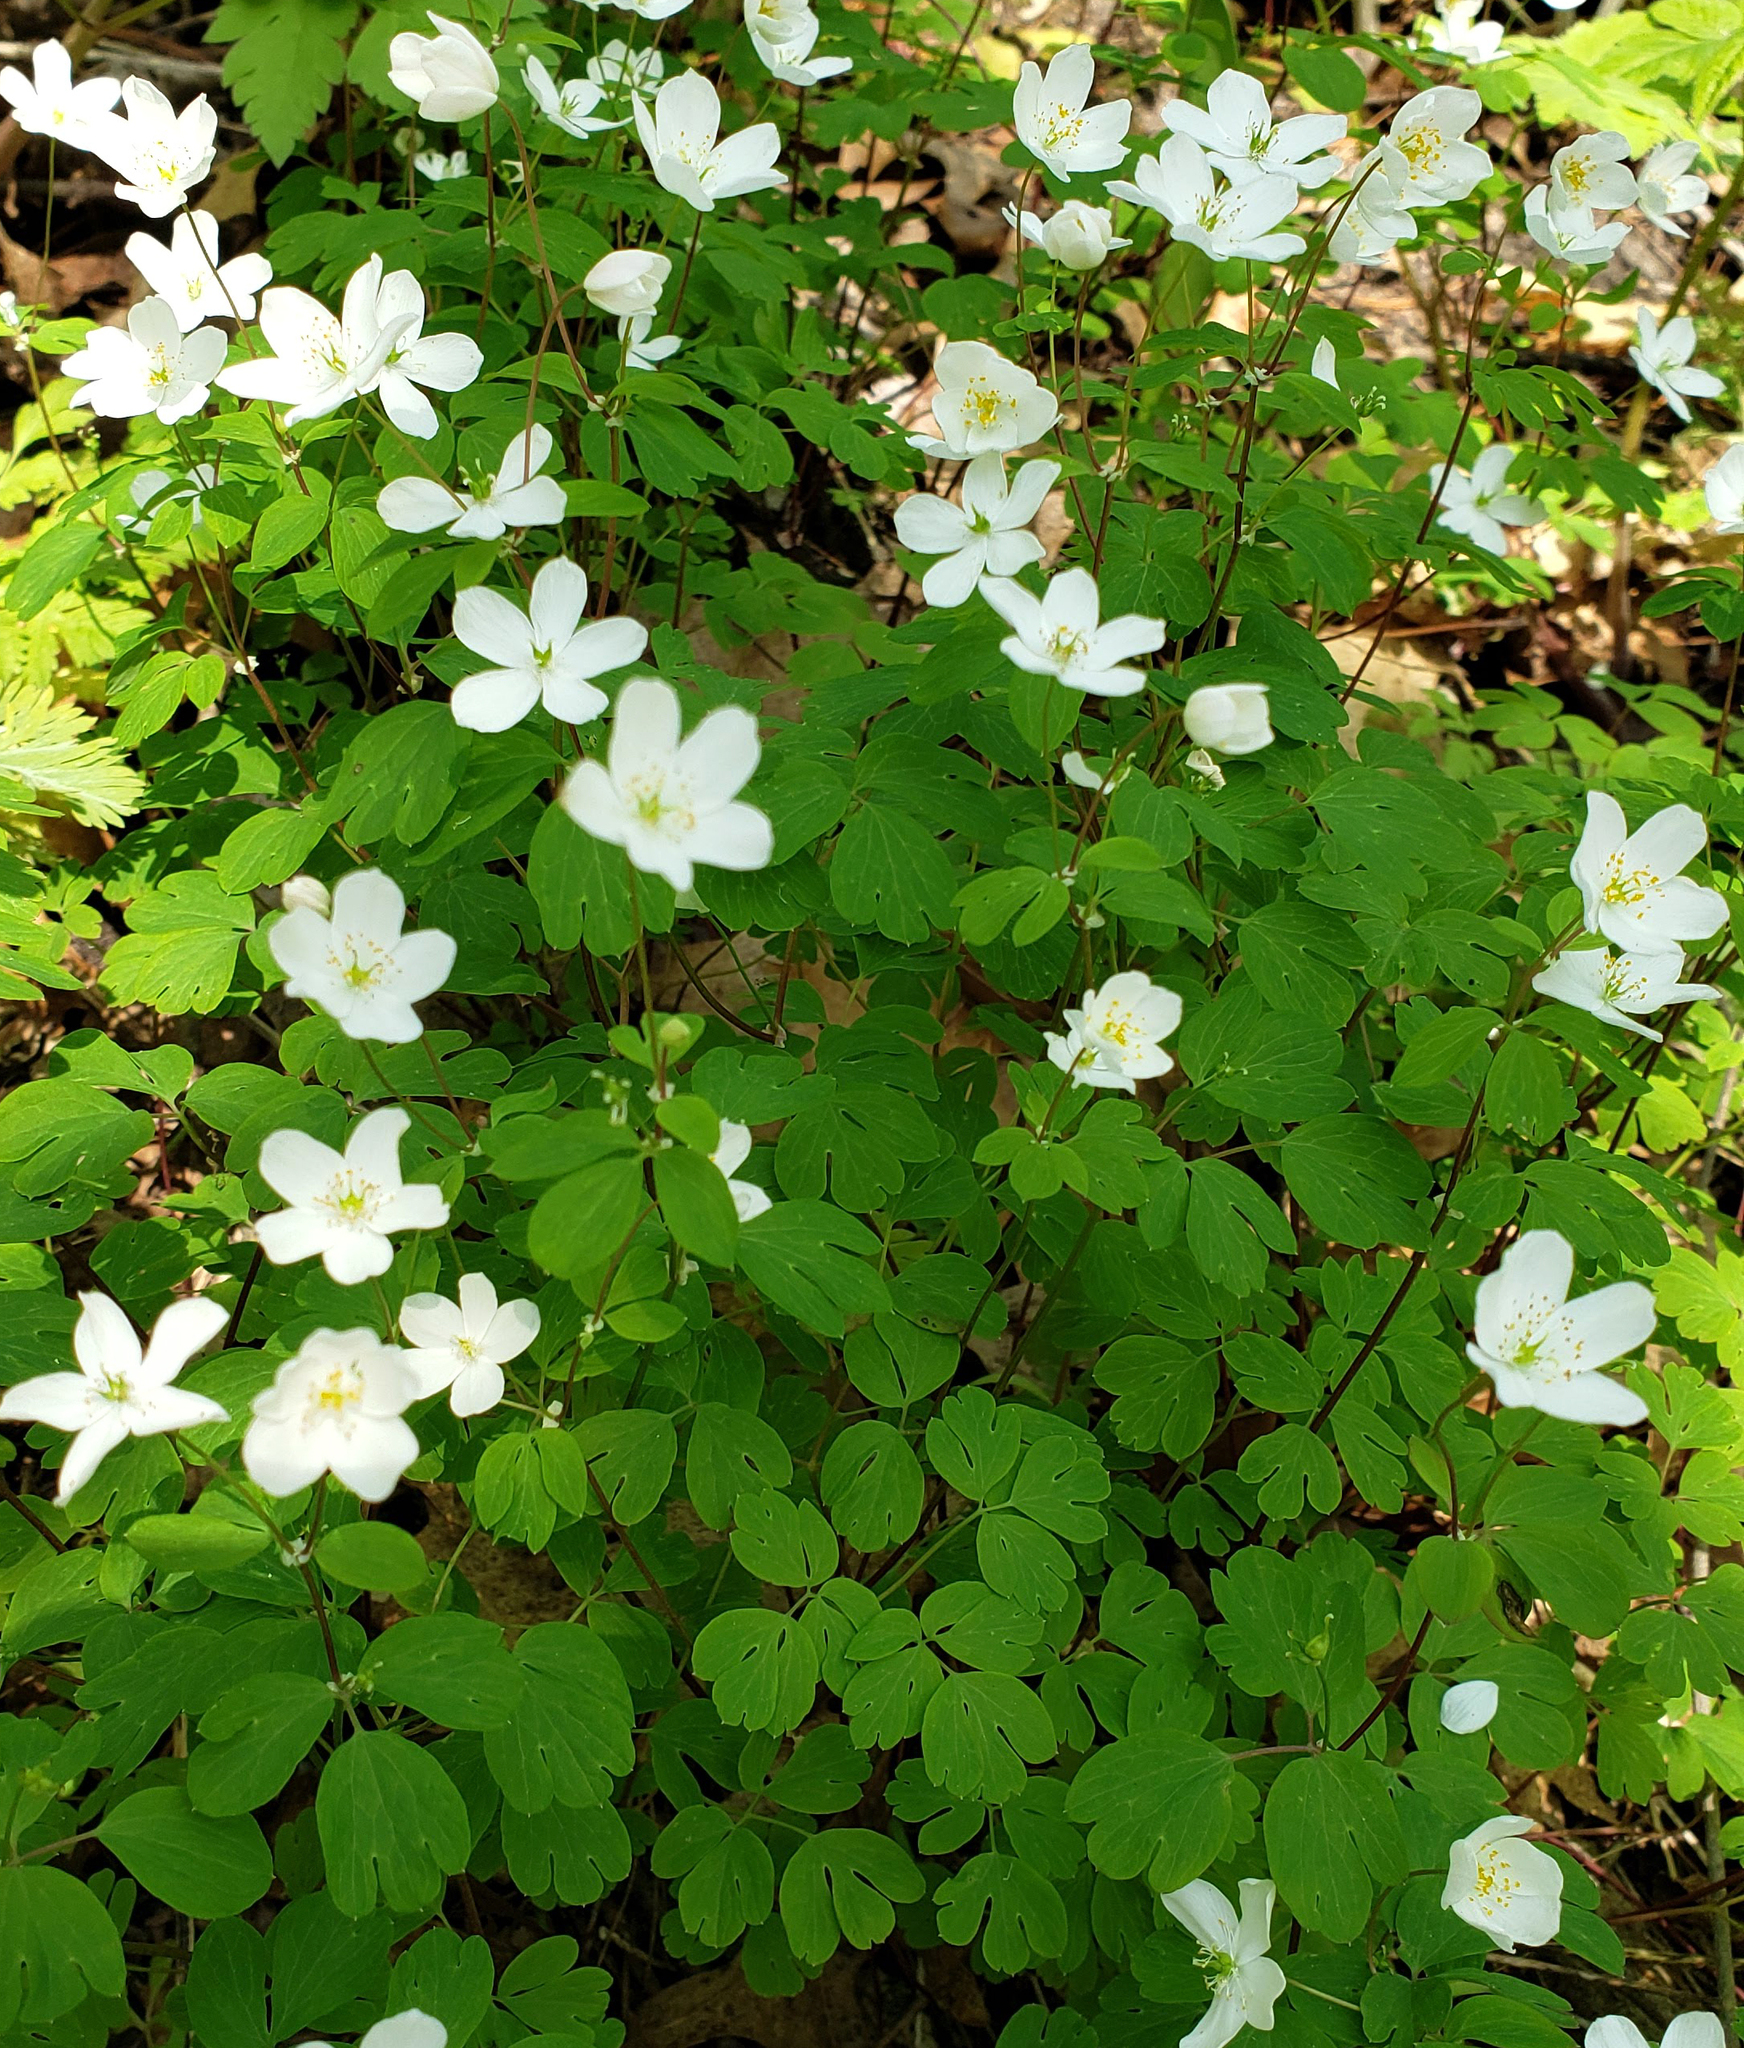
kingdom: Plantae
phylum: Tracheophyta
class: Magnoliopsida
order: Ranunculales
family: Ranunculaceae
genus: Enemion
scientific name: Enemion biternatum
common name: Eastern false rue-anemone
